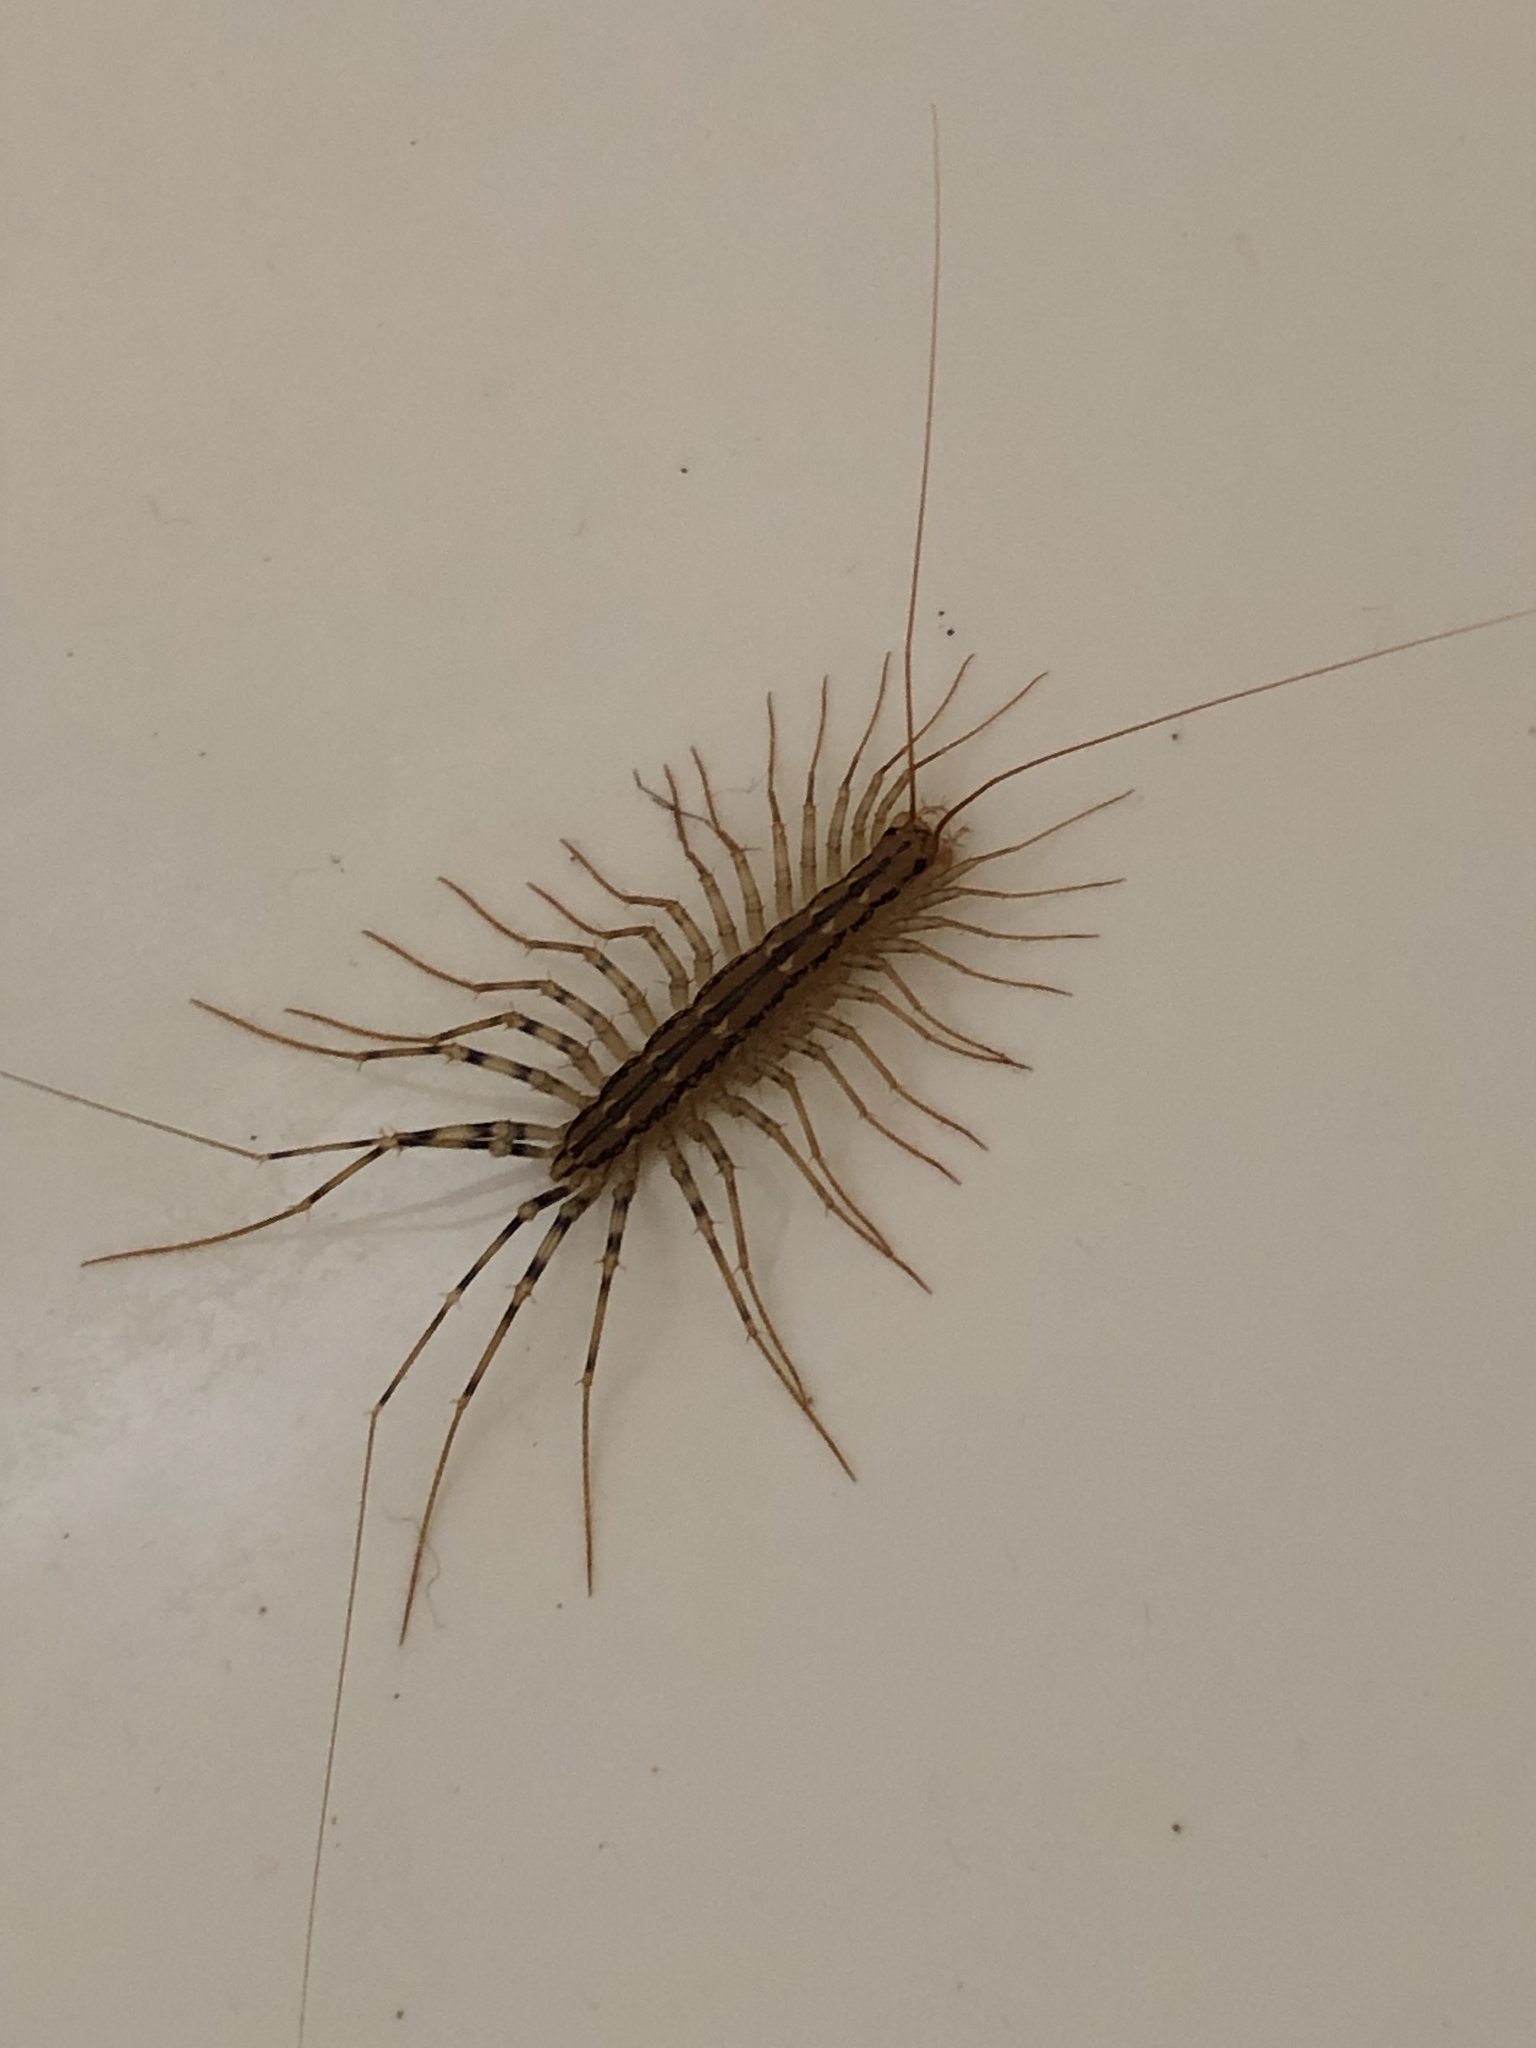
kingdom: Animalia
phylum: Arthropoda
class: Chilopoda
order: Scutigeromorpha
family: Scutigeridae
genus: Scutigera
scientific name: Scutigera coleoptrata
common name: House centipede
